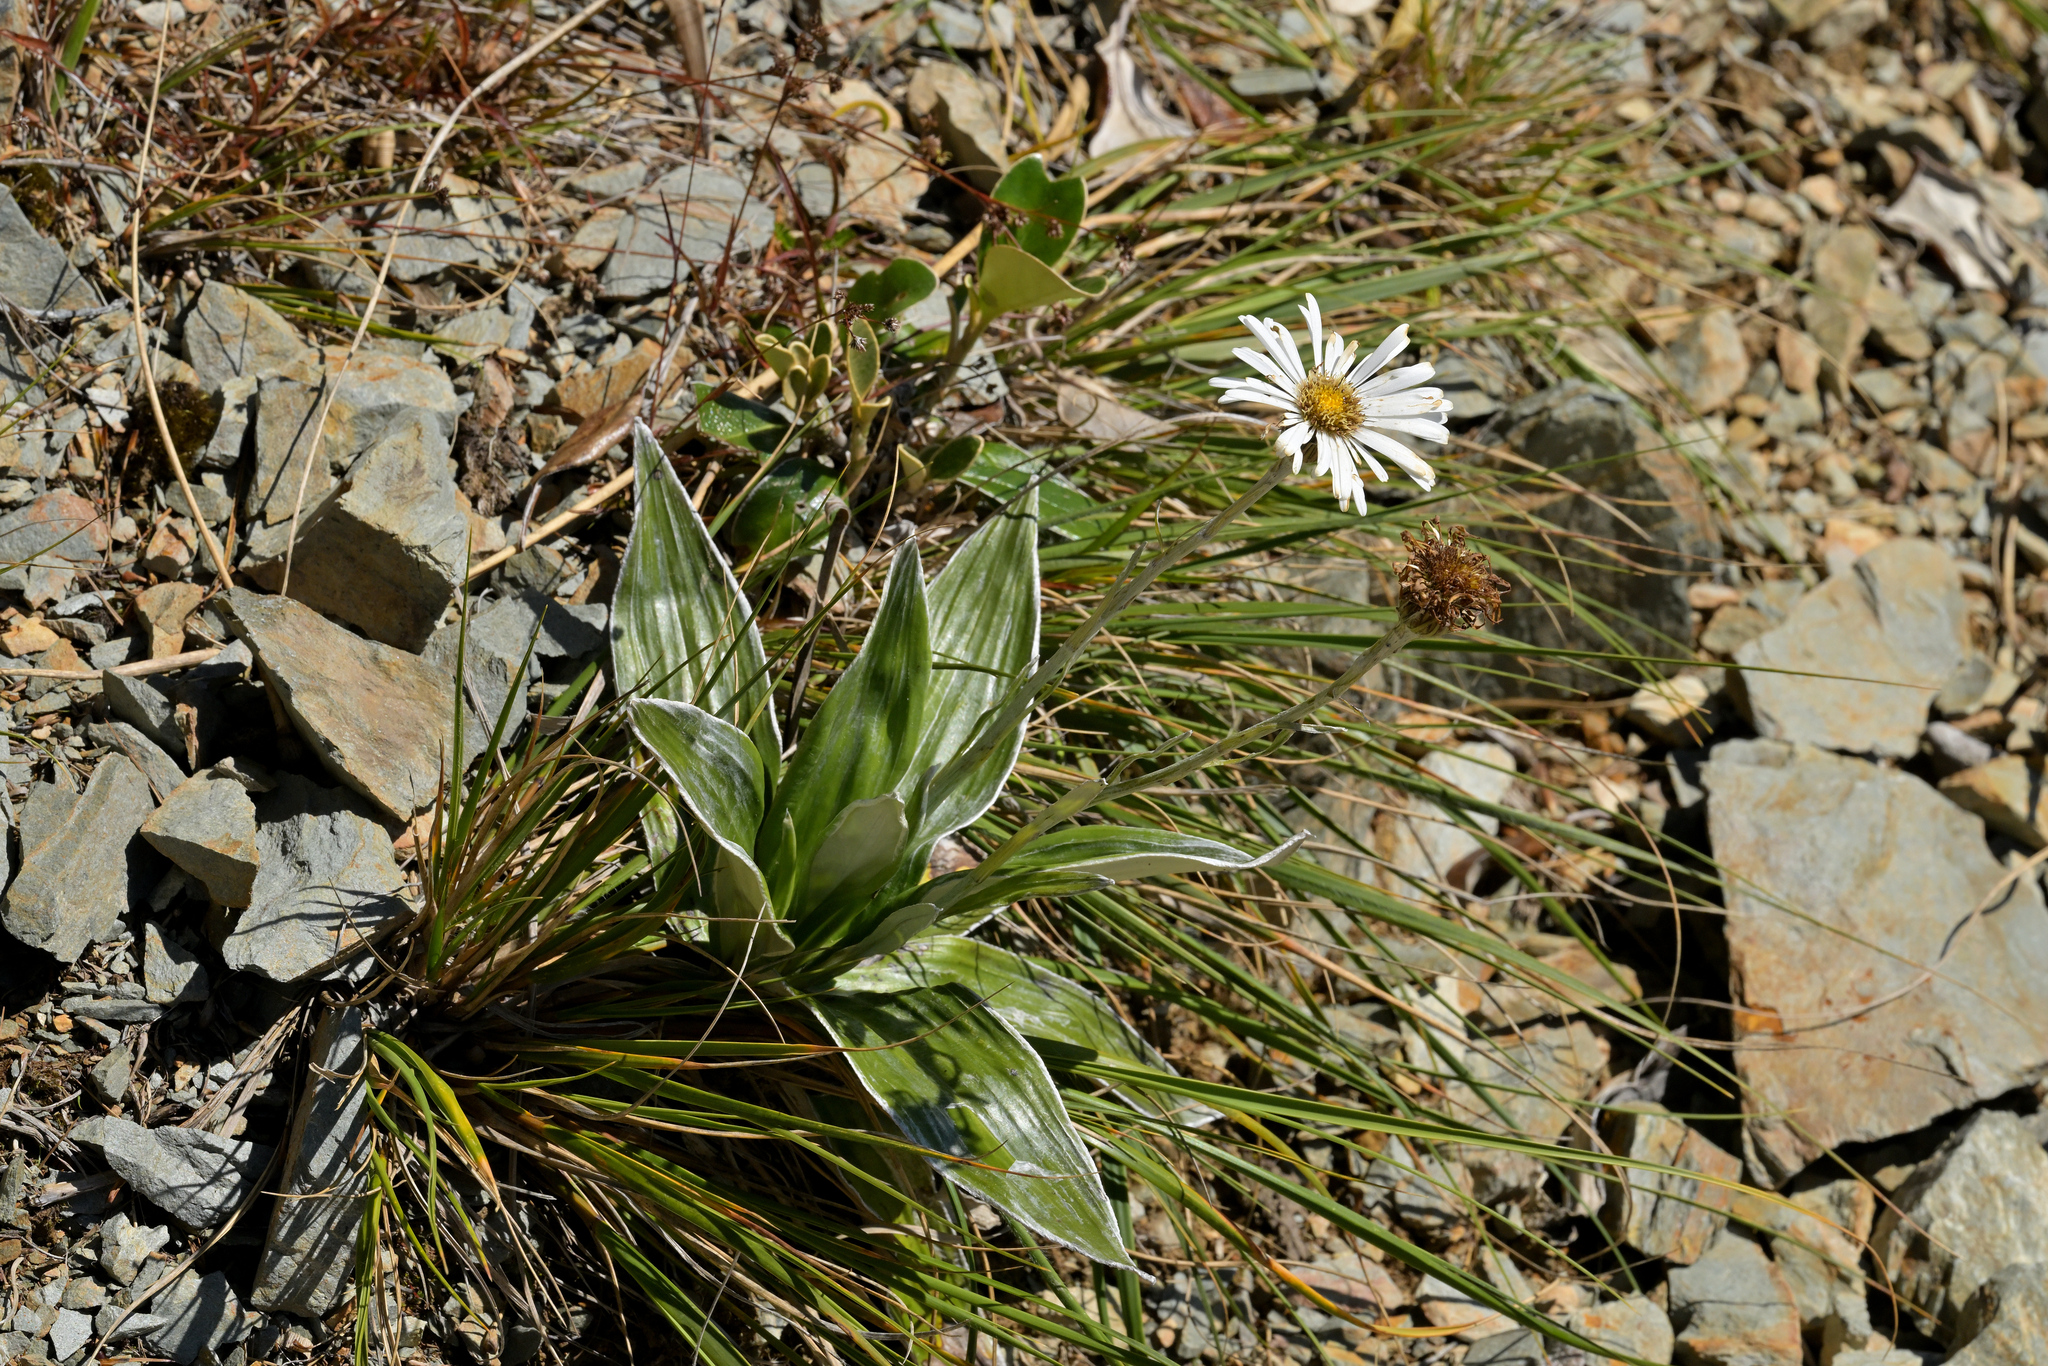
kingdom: Plantae
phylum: Tracheophyta
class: Magnoliopsida
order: Asterales
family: Asteraceae
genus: Celmisia
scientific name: Celmisia semicordata
